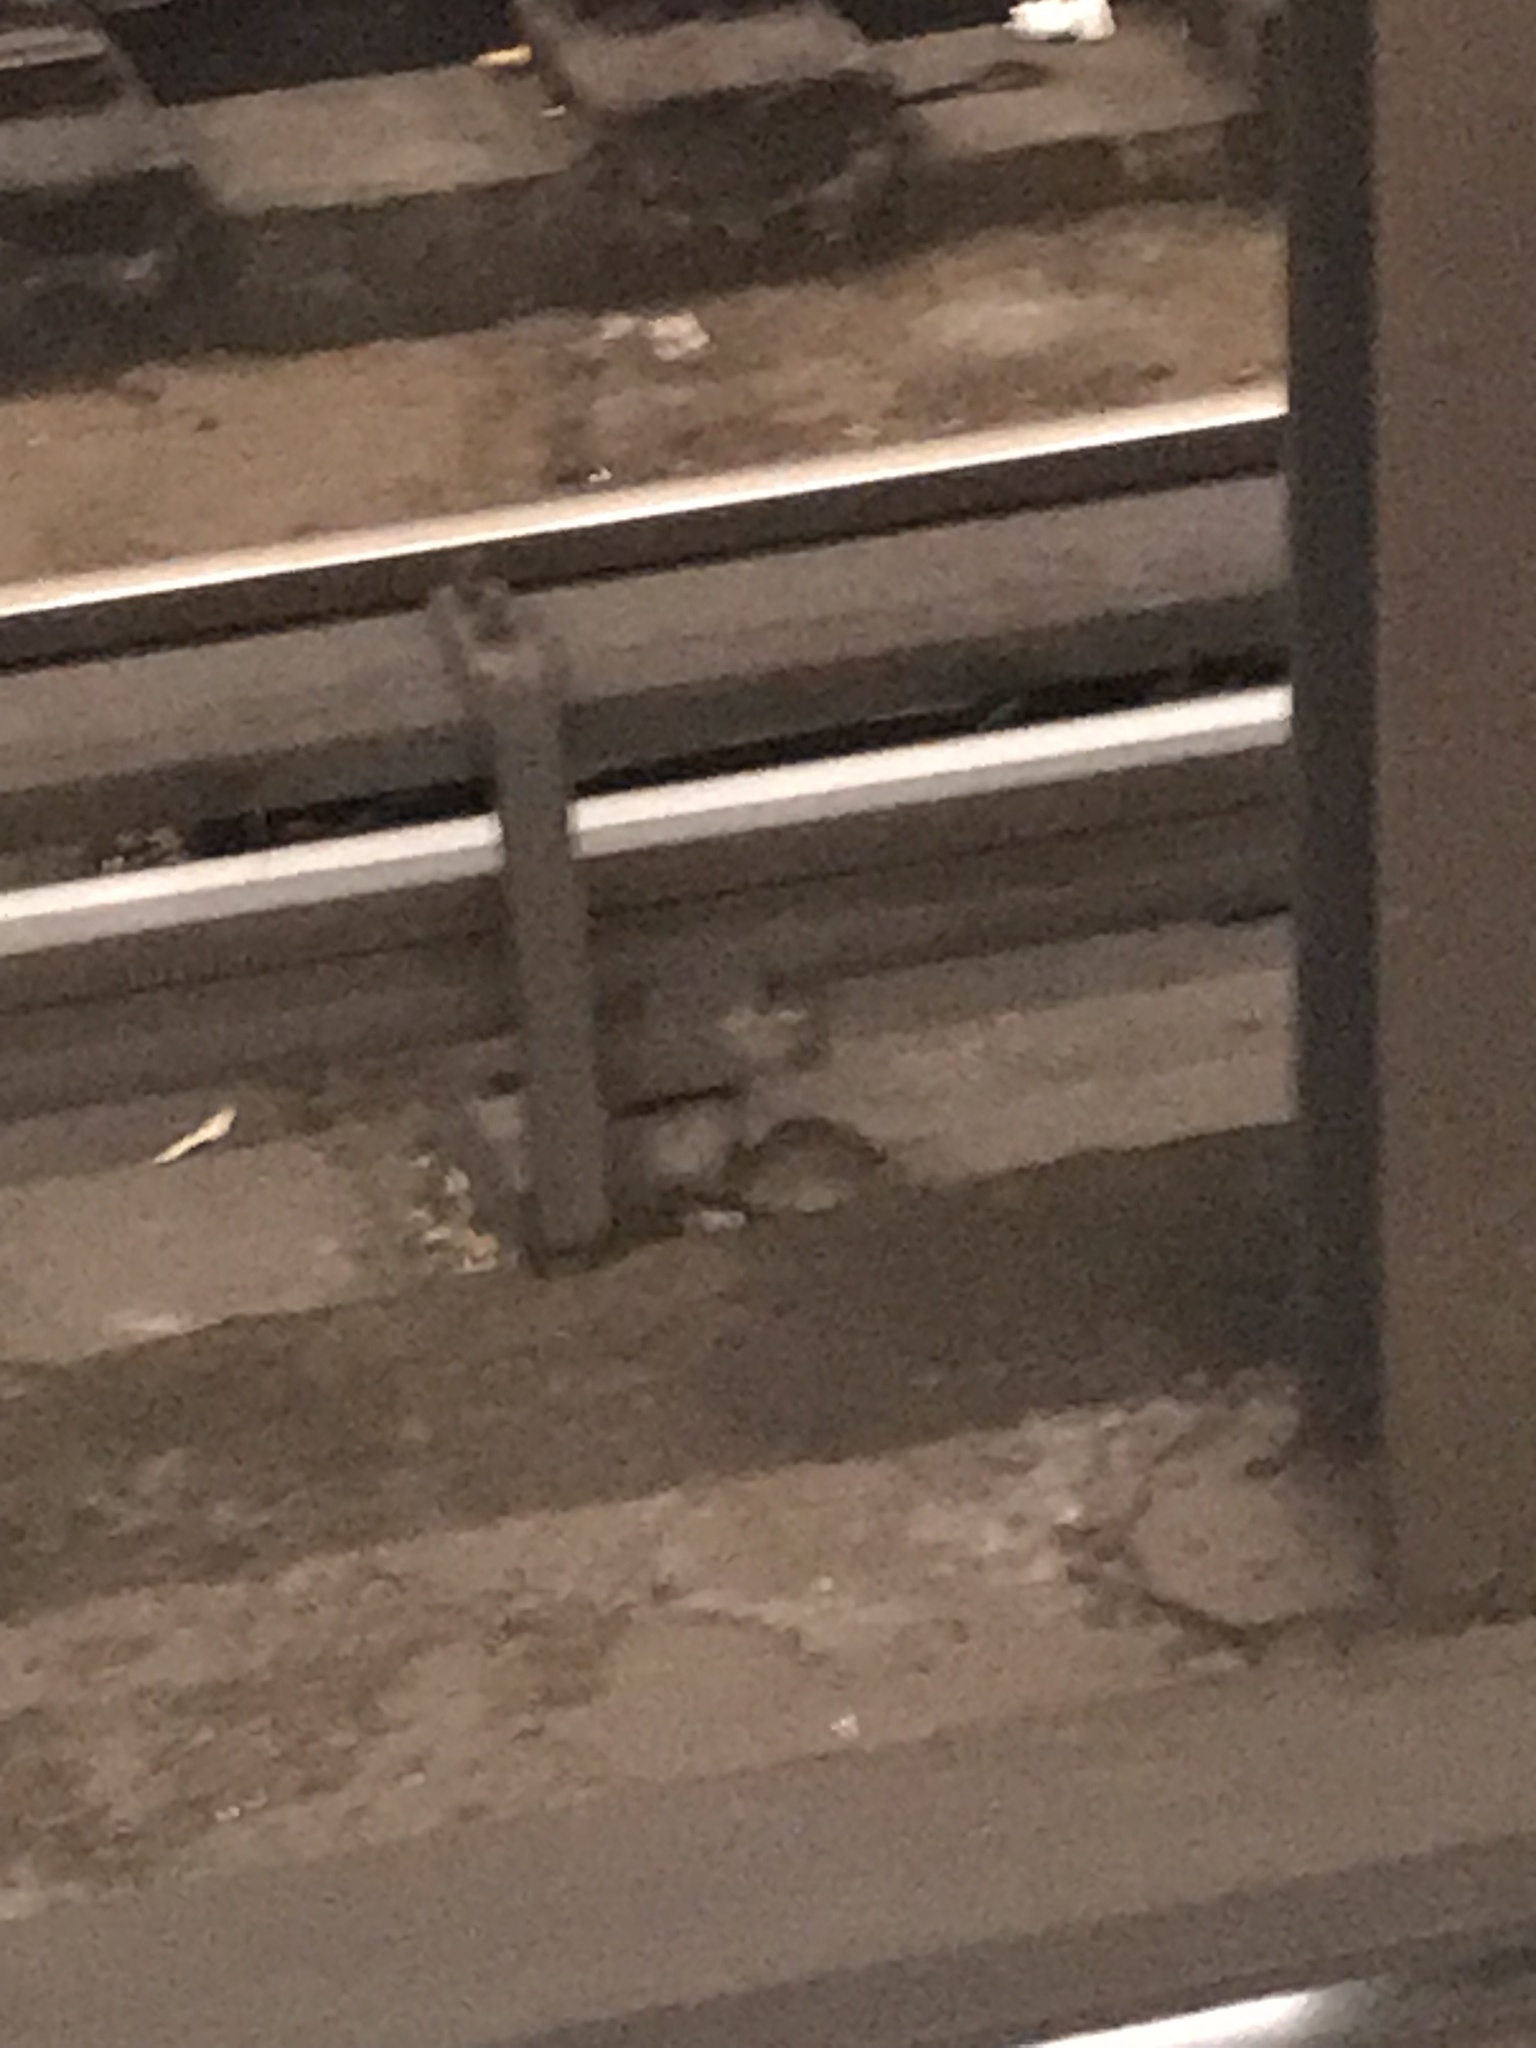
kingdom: Animalia
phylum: Chordata
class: Mammalia
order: Rodentia
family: Muridae
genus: Rattus
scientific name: Rattus norvegicus
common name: Brown rat
